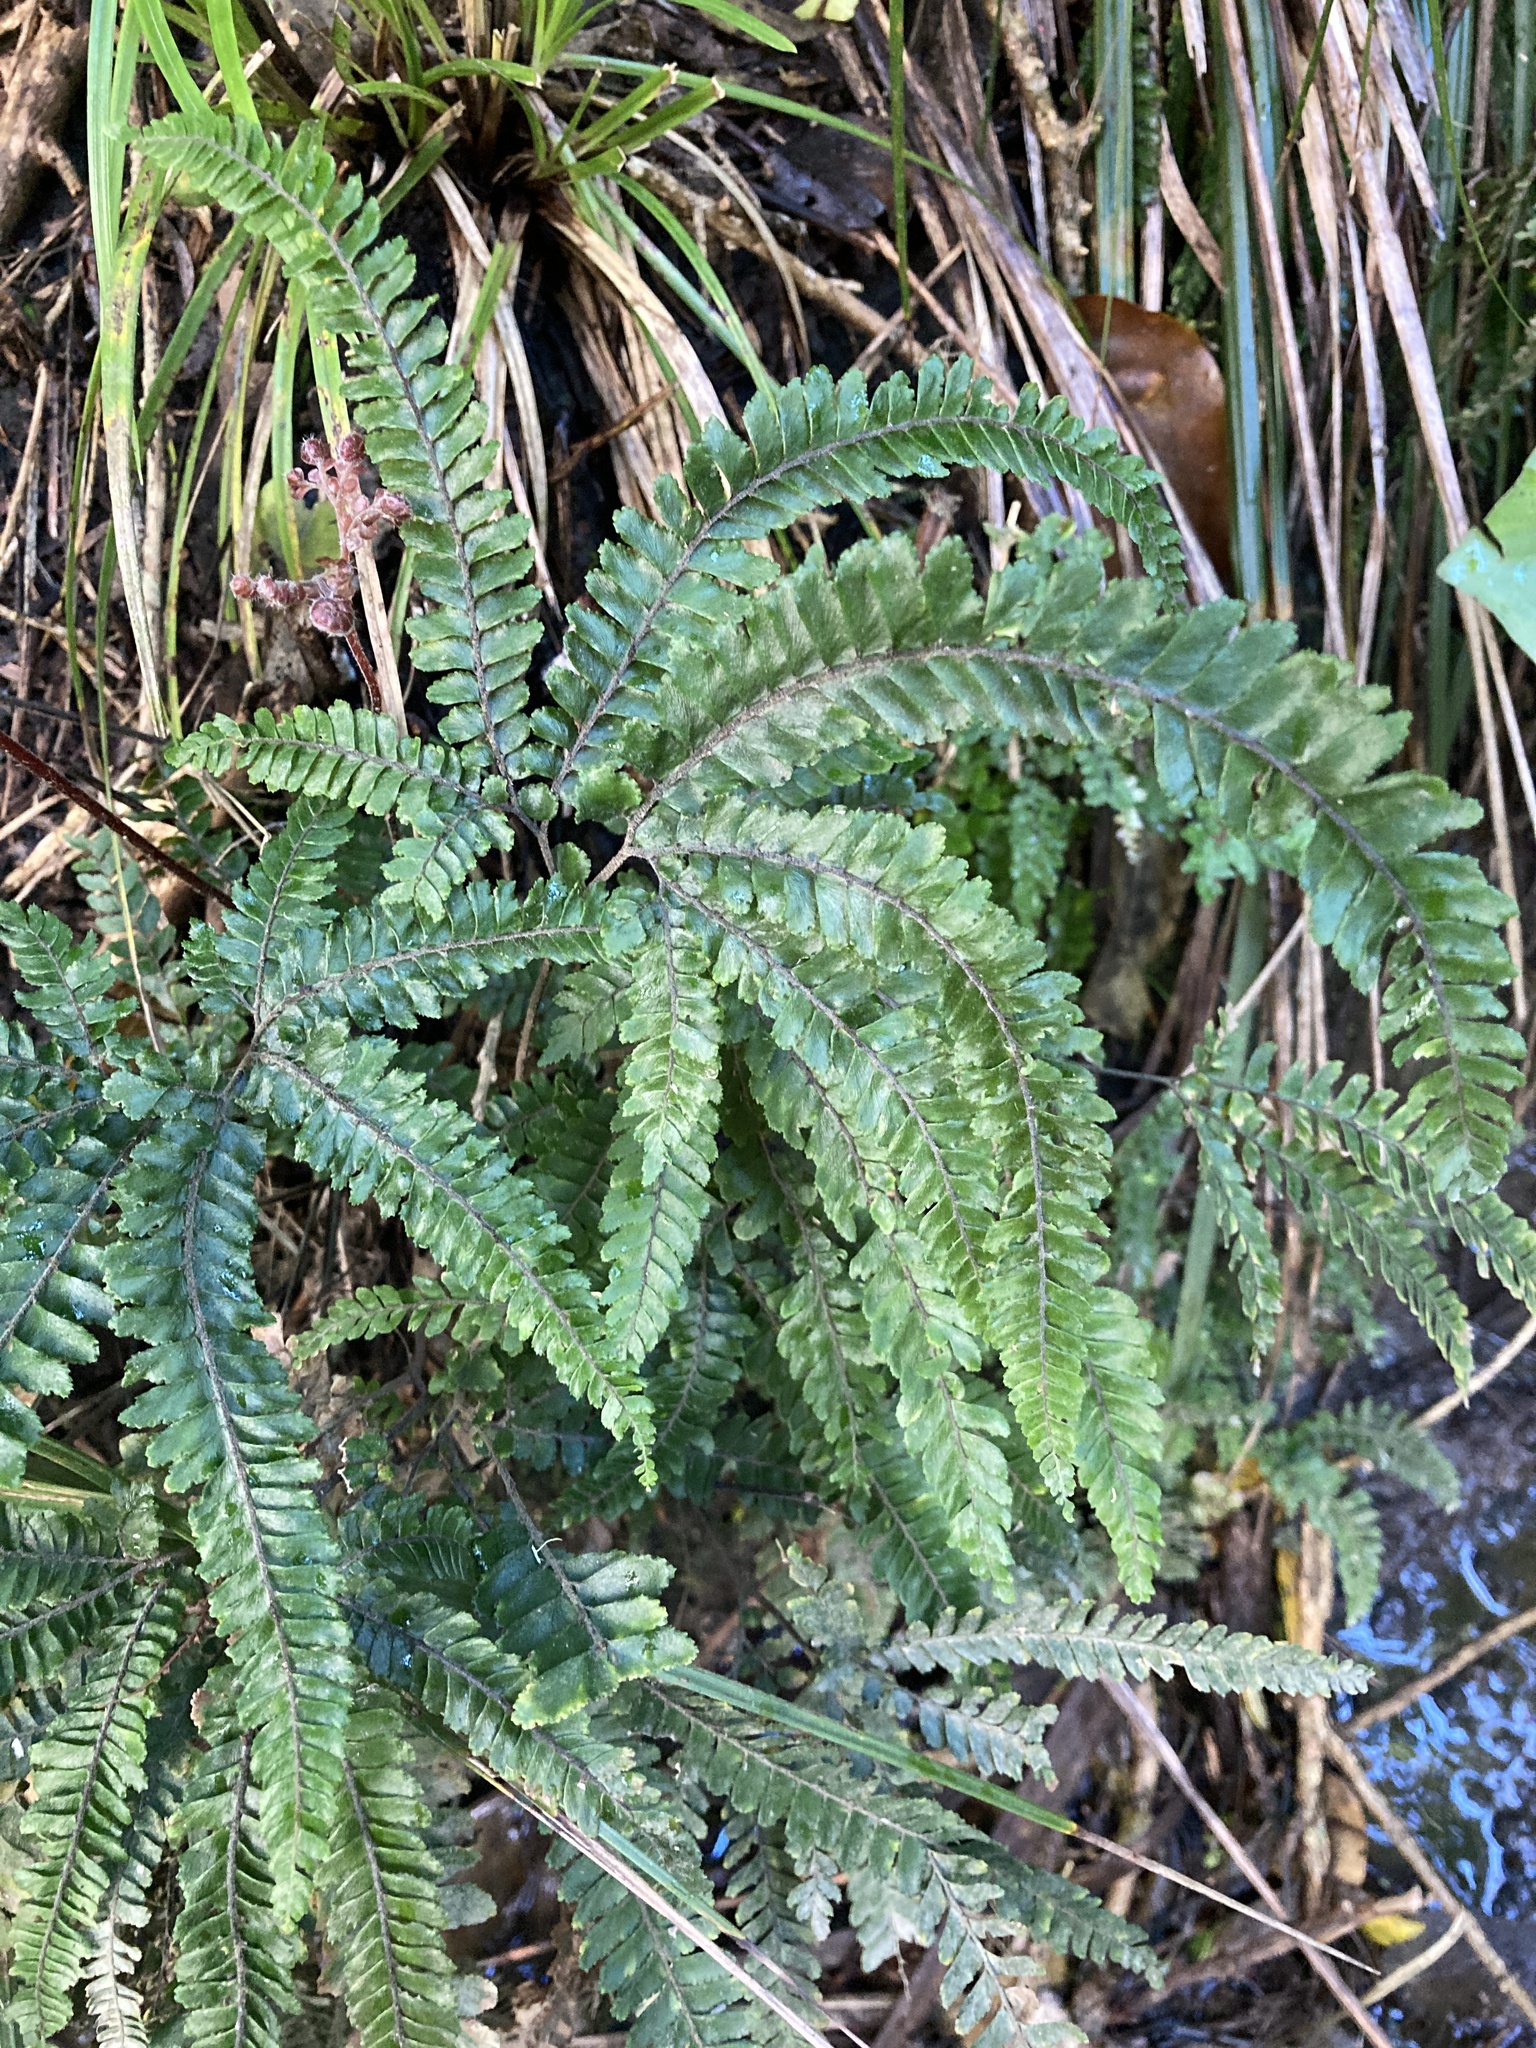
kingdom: Plantae
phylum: Tracheophyta
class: Polypodiopsida
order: Polypodiales
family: Pteridaceae
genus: Adiantum
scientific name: Adiantum hispidulum
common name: Rough maidenhair
